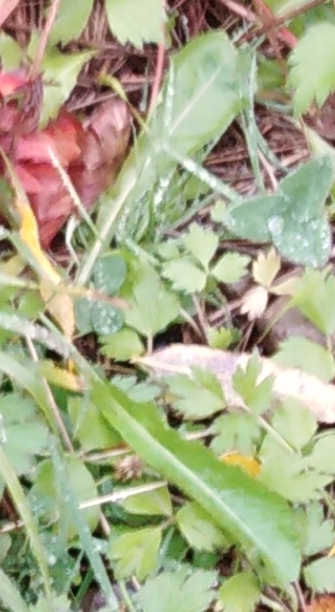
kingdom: Plantae
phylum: Tracheophyta
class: Magnoliopsida
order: Asterales
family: Asteraceae
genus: Taraxacum
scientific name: Taraxacum officinale
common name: Common dandelion
